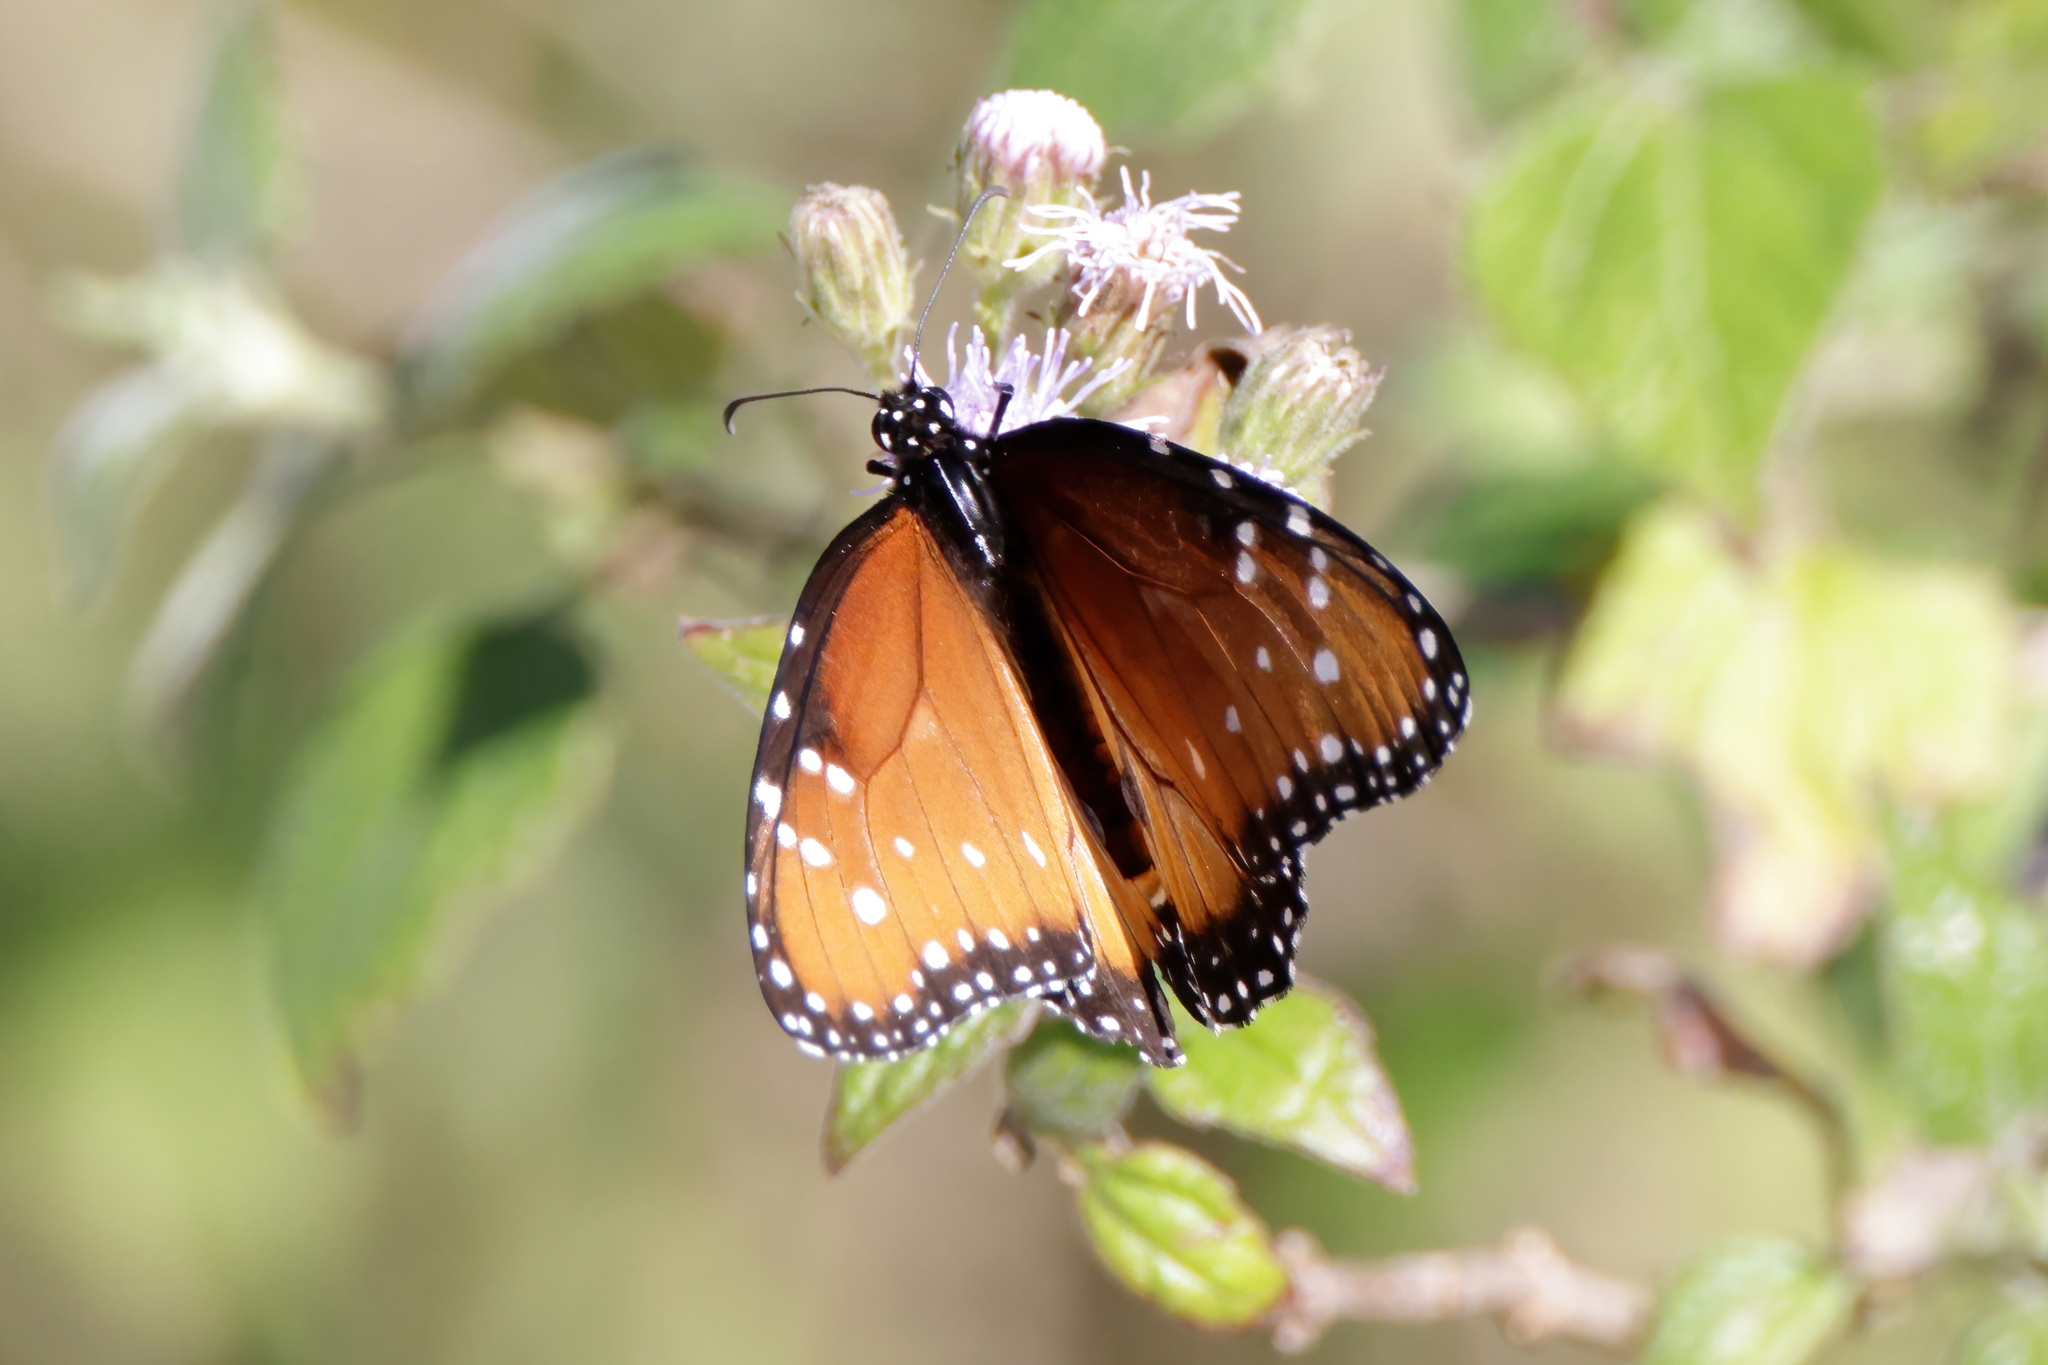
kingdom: Animalia
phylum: Arthropoda
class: Insecta
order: Lepidoptera
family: Nymphalidae
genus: Danaus
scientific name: Danaus gilippus
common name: Queen
